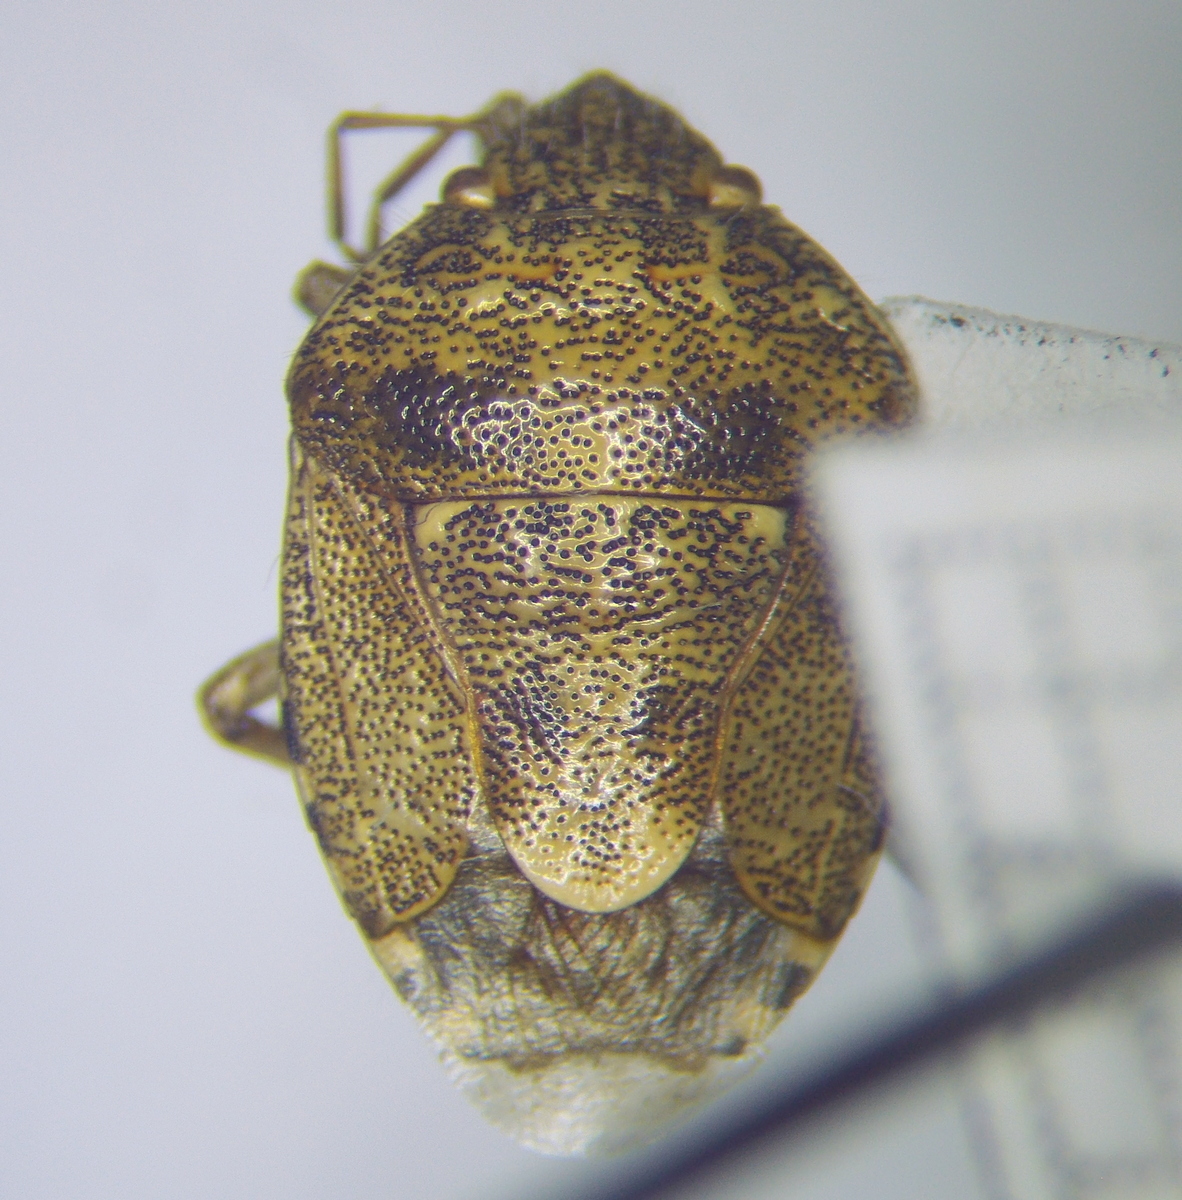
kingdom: Animalia
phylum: Arthropoda
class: Insecta
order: Hemiptera
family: Pentatomidae
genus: Staria
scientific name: Staria lunata
